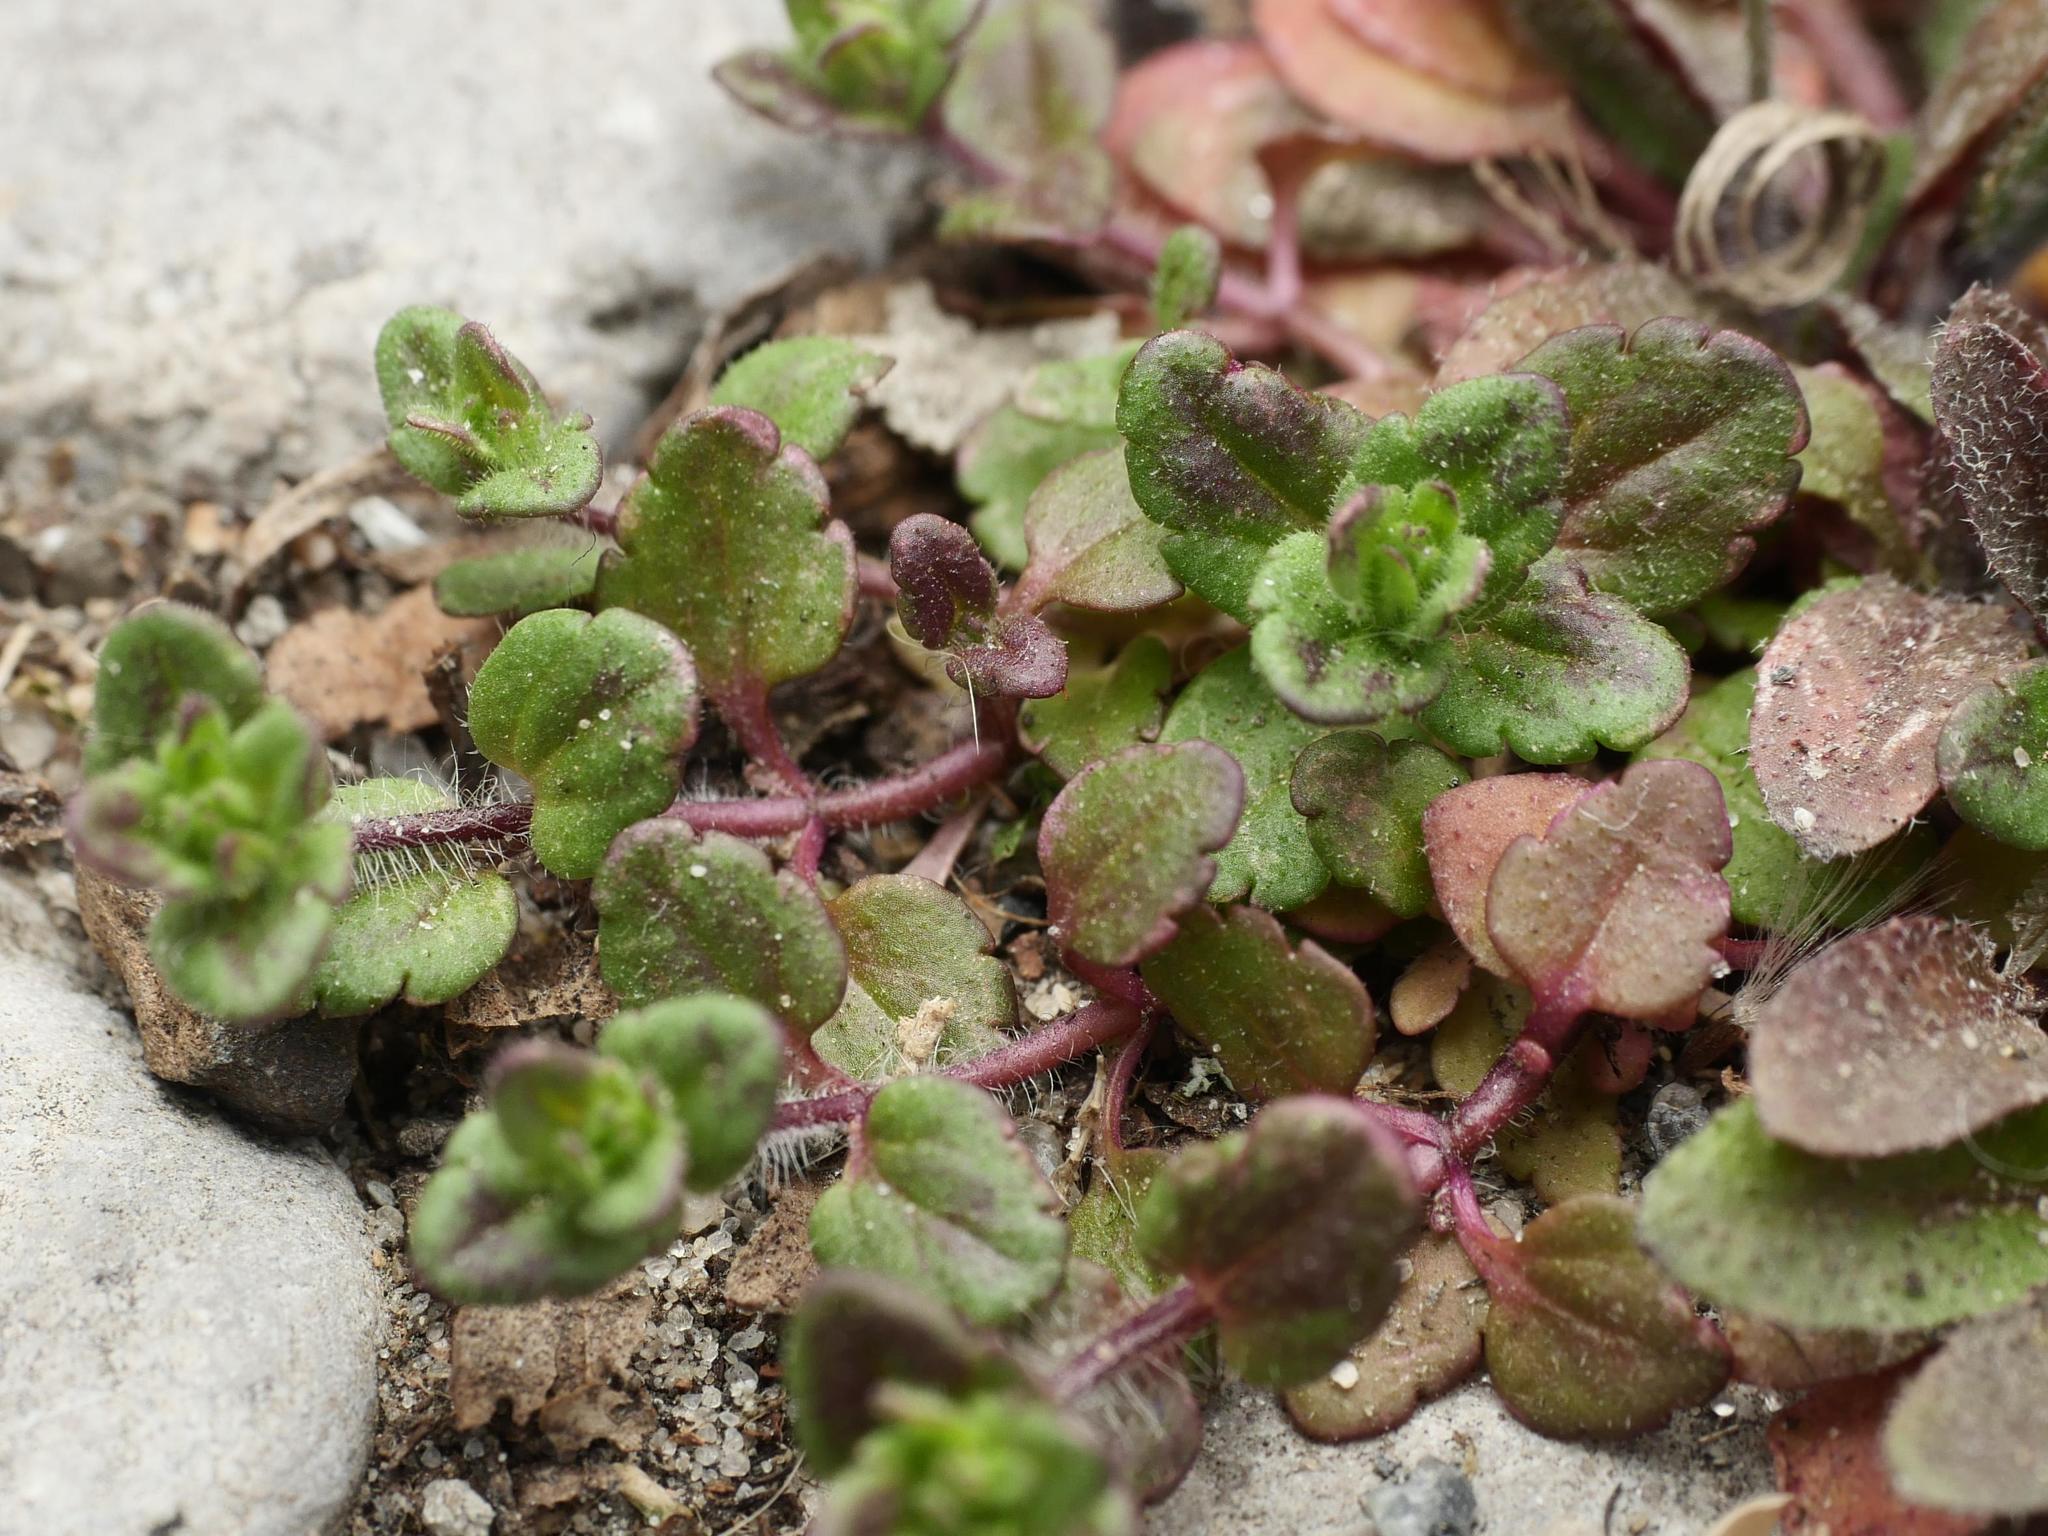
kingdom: Plantae
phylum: Tracheophyta
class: Magnoliopsida
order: Lamiales
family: Plantaginaceae
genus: Veronica
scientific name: Veronica arvensis
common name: Corn speedwell
